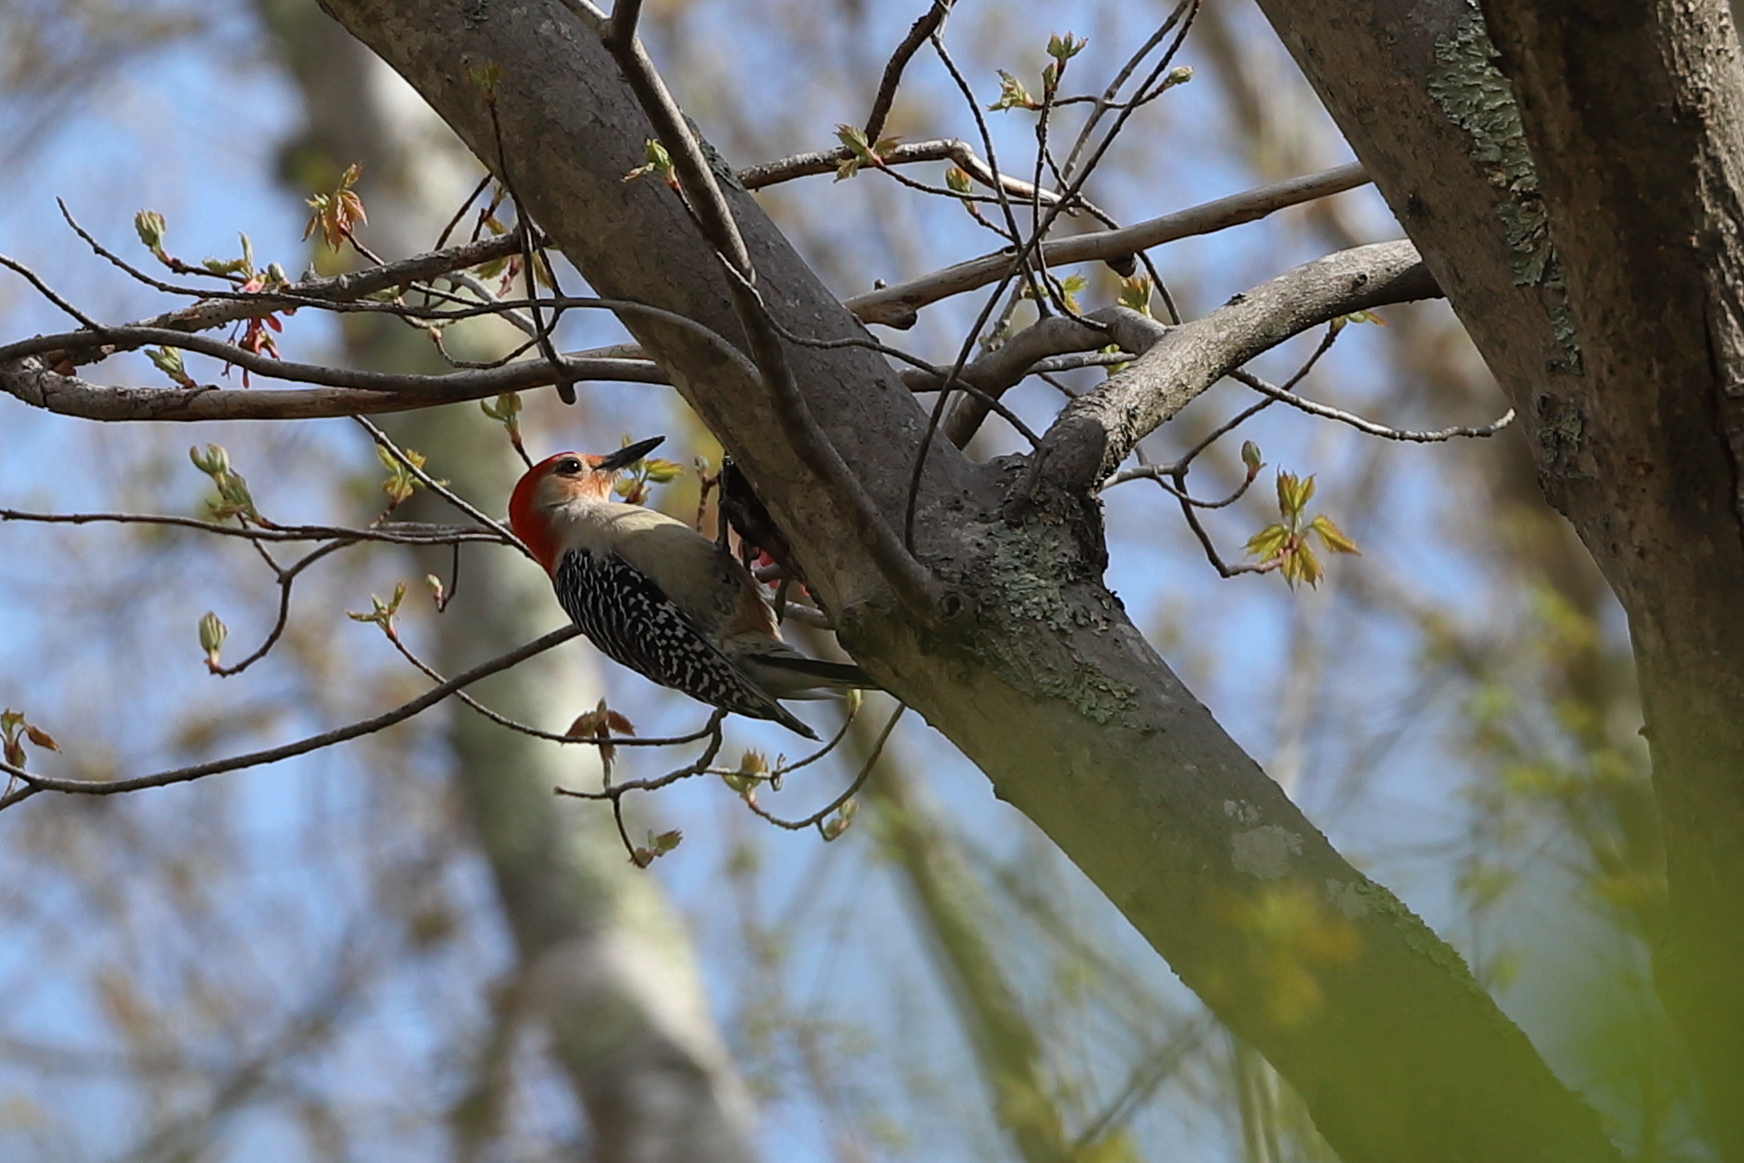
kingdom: Animalia
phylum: Chordata
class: Aves
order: Piciformes
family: Picidae
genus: Melanerpes
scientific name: Melanerpes carolinus
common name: Red-bellied woodpecker
